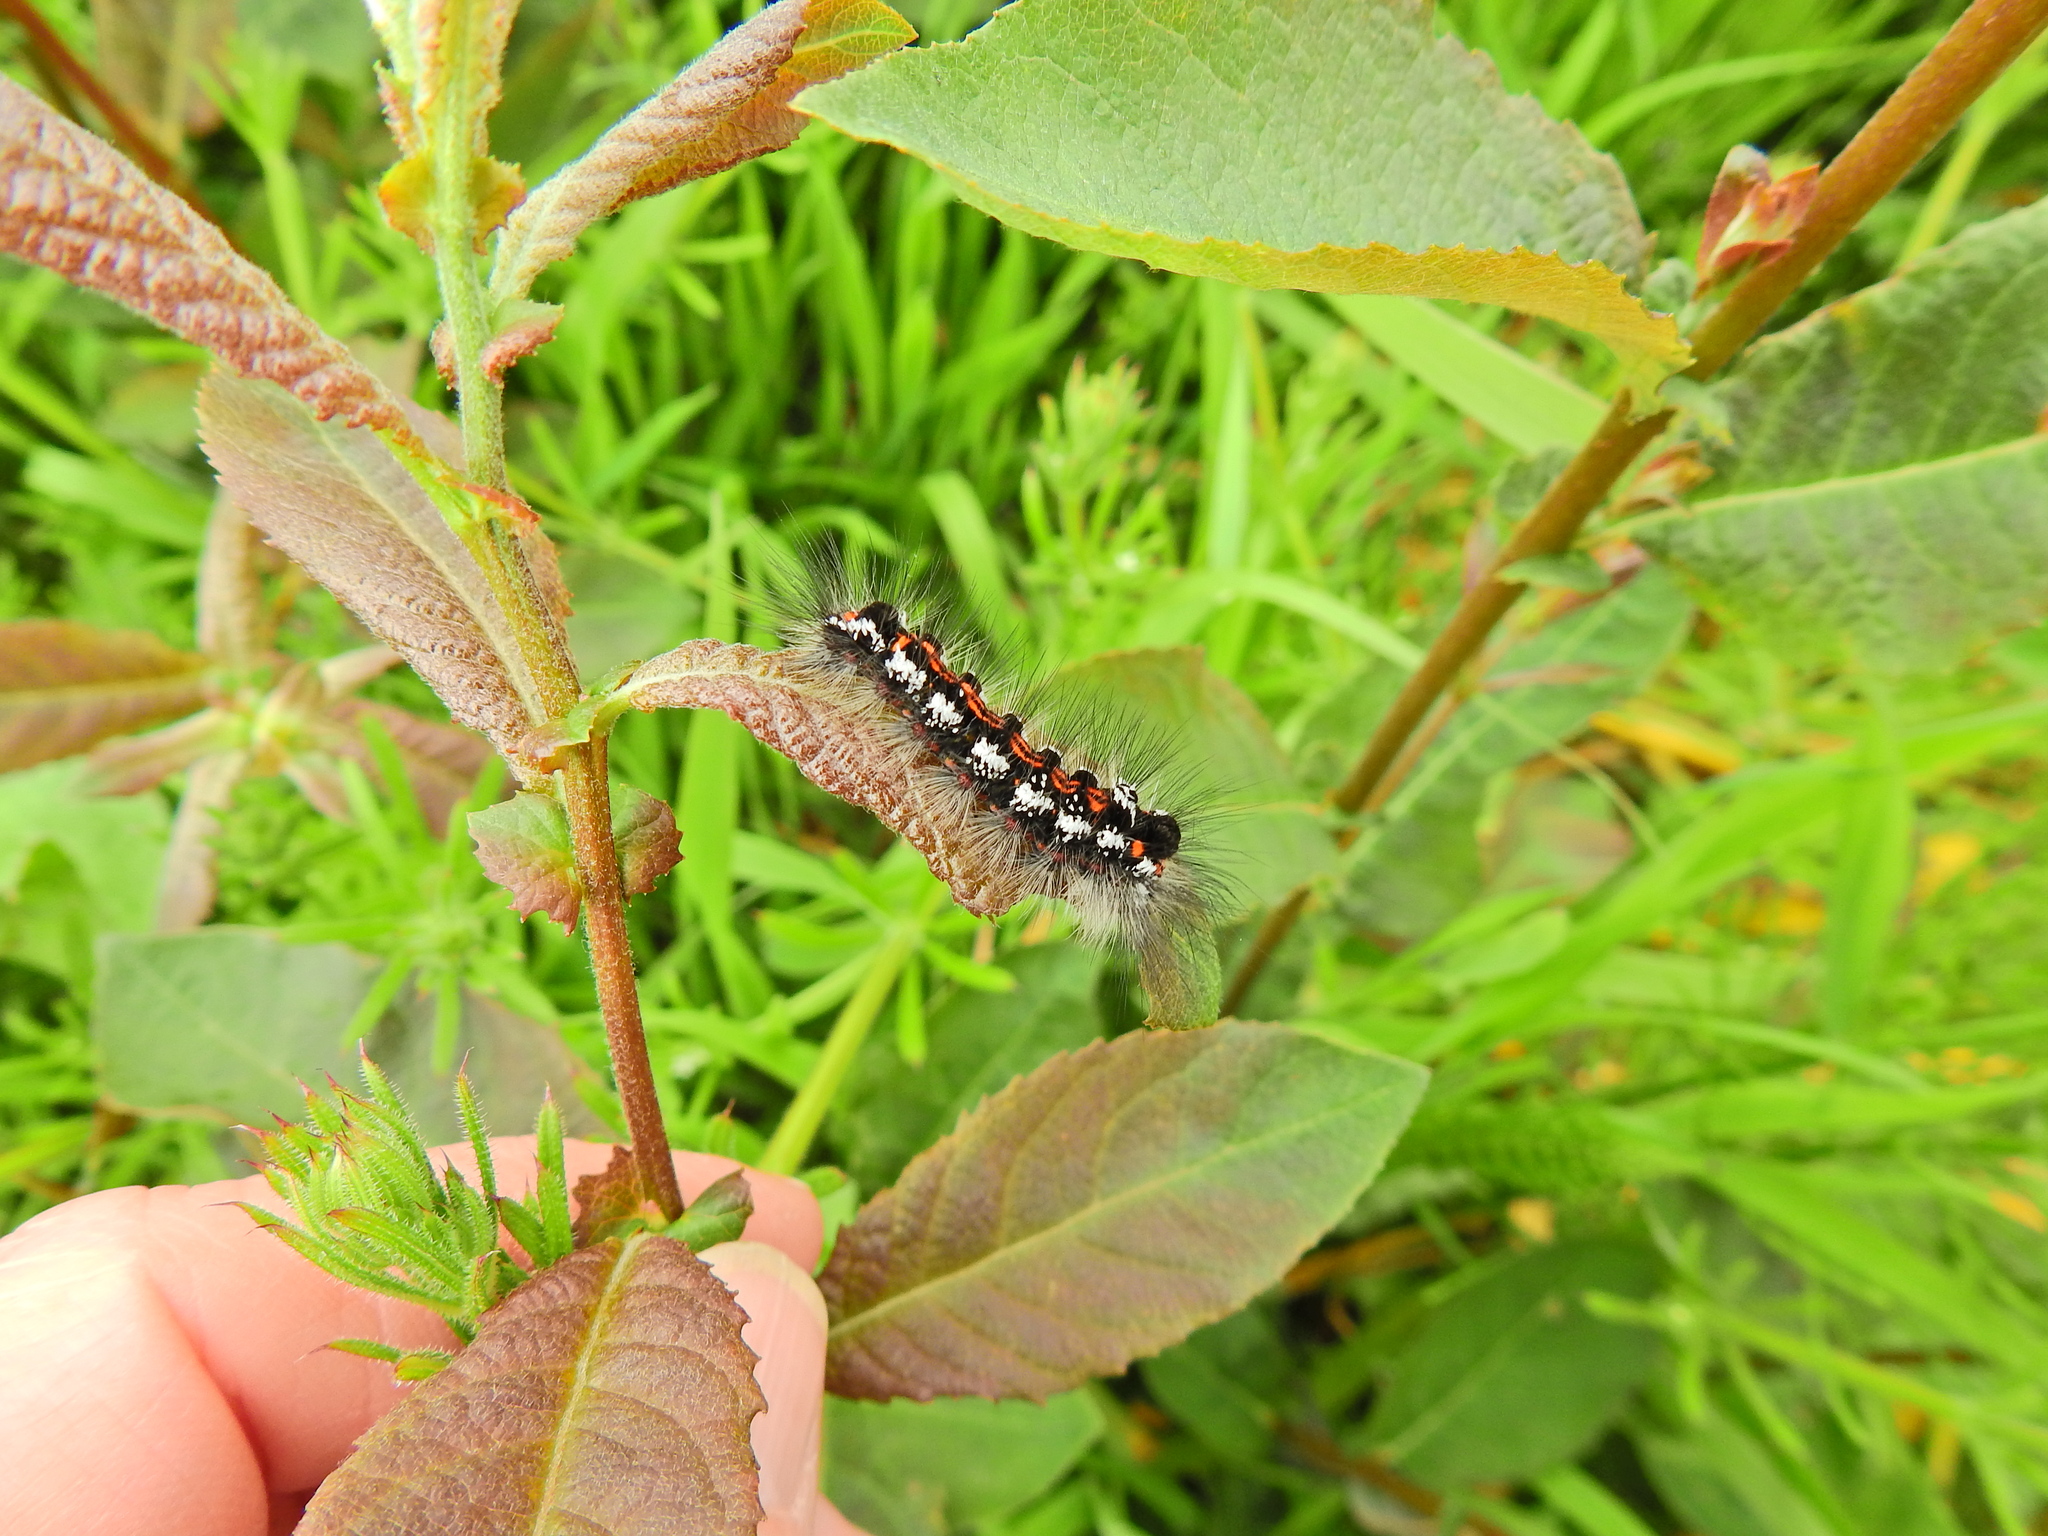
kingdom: Animalia
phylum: Arthropoda
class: Insecta
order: Lepidoptera
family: Erebidae
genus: Sphrageidus
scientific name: Sphrageidus similis
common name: Yellow-tail
